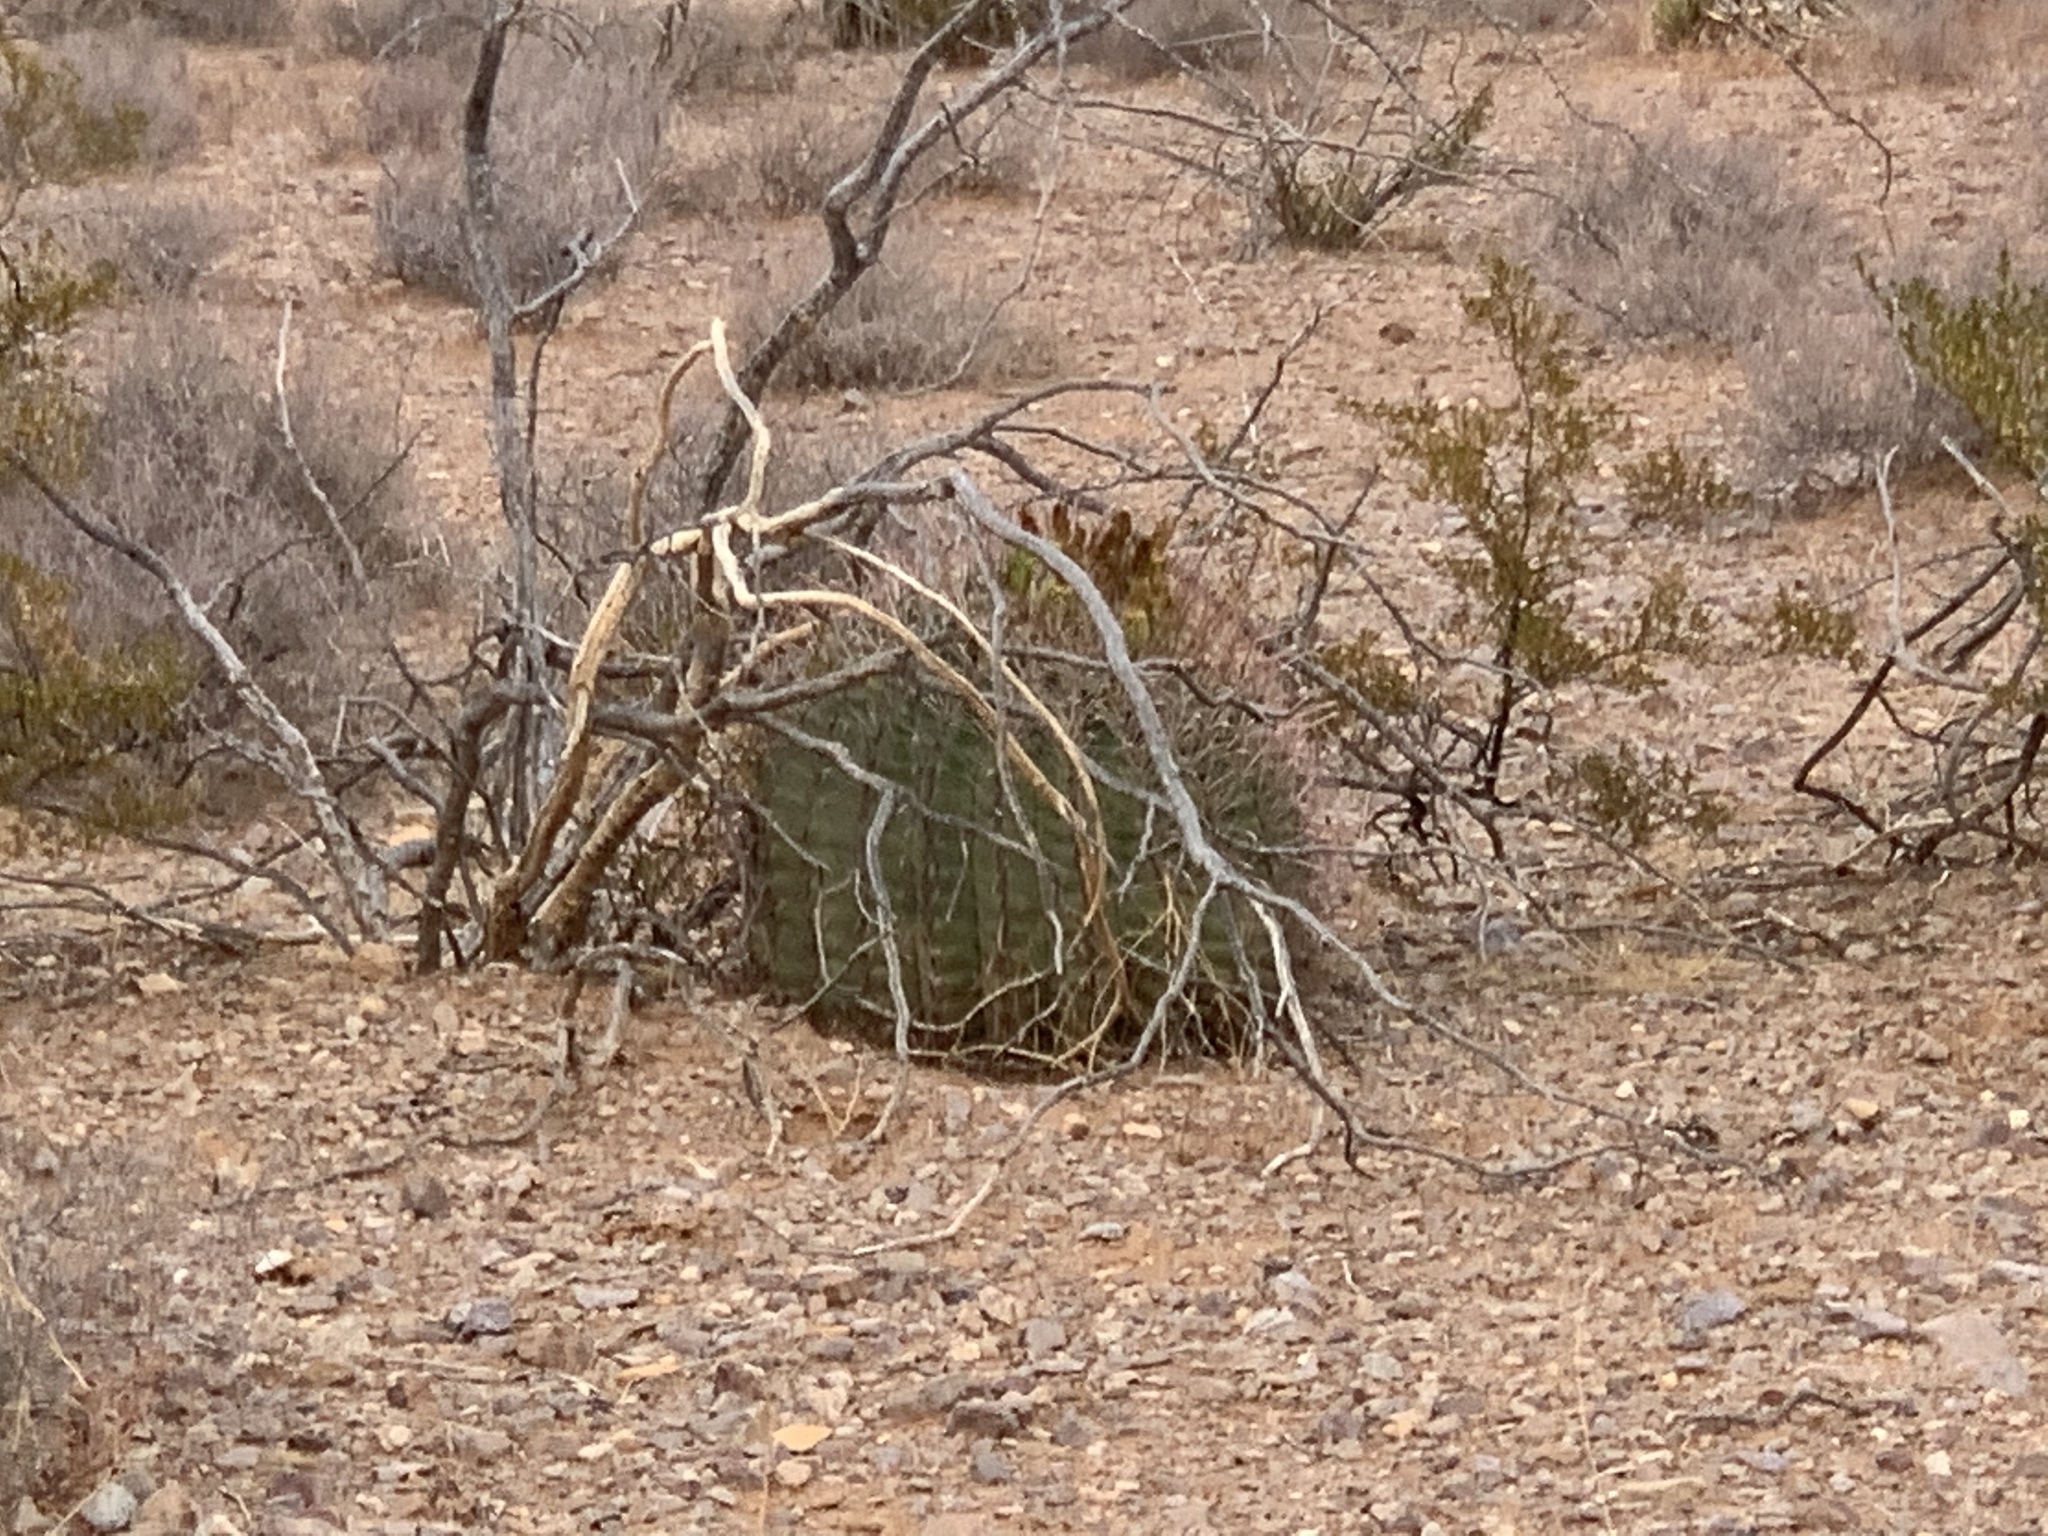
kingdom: Plantae
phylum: Tracheophyta
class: Magnoliopsida
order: Caryophyllales
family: Cactaceae
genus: Ferocactus
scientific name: Ferocactus wislizeni
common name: Candy barrel cactus
